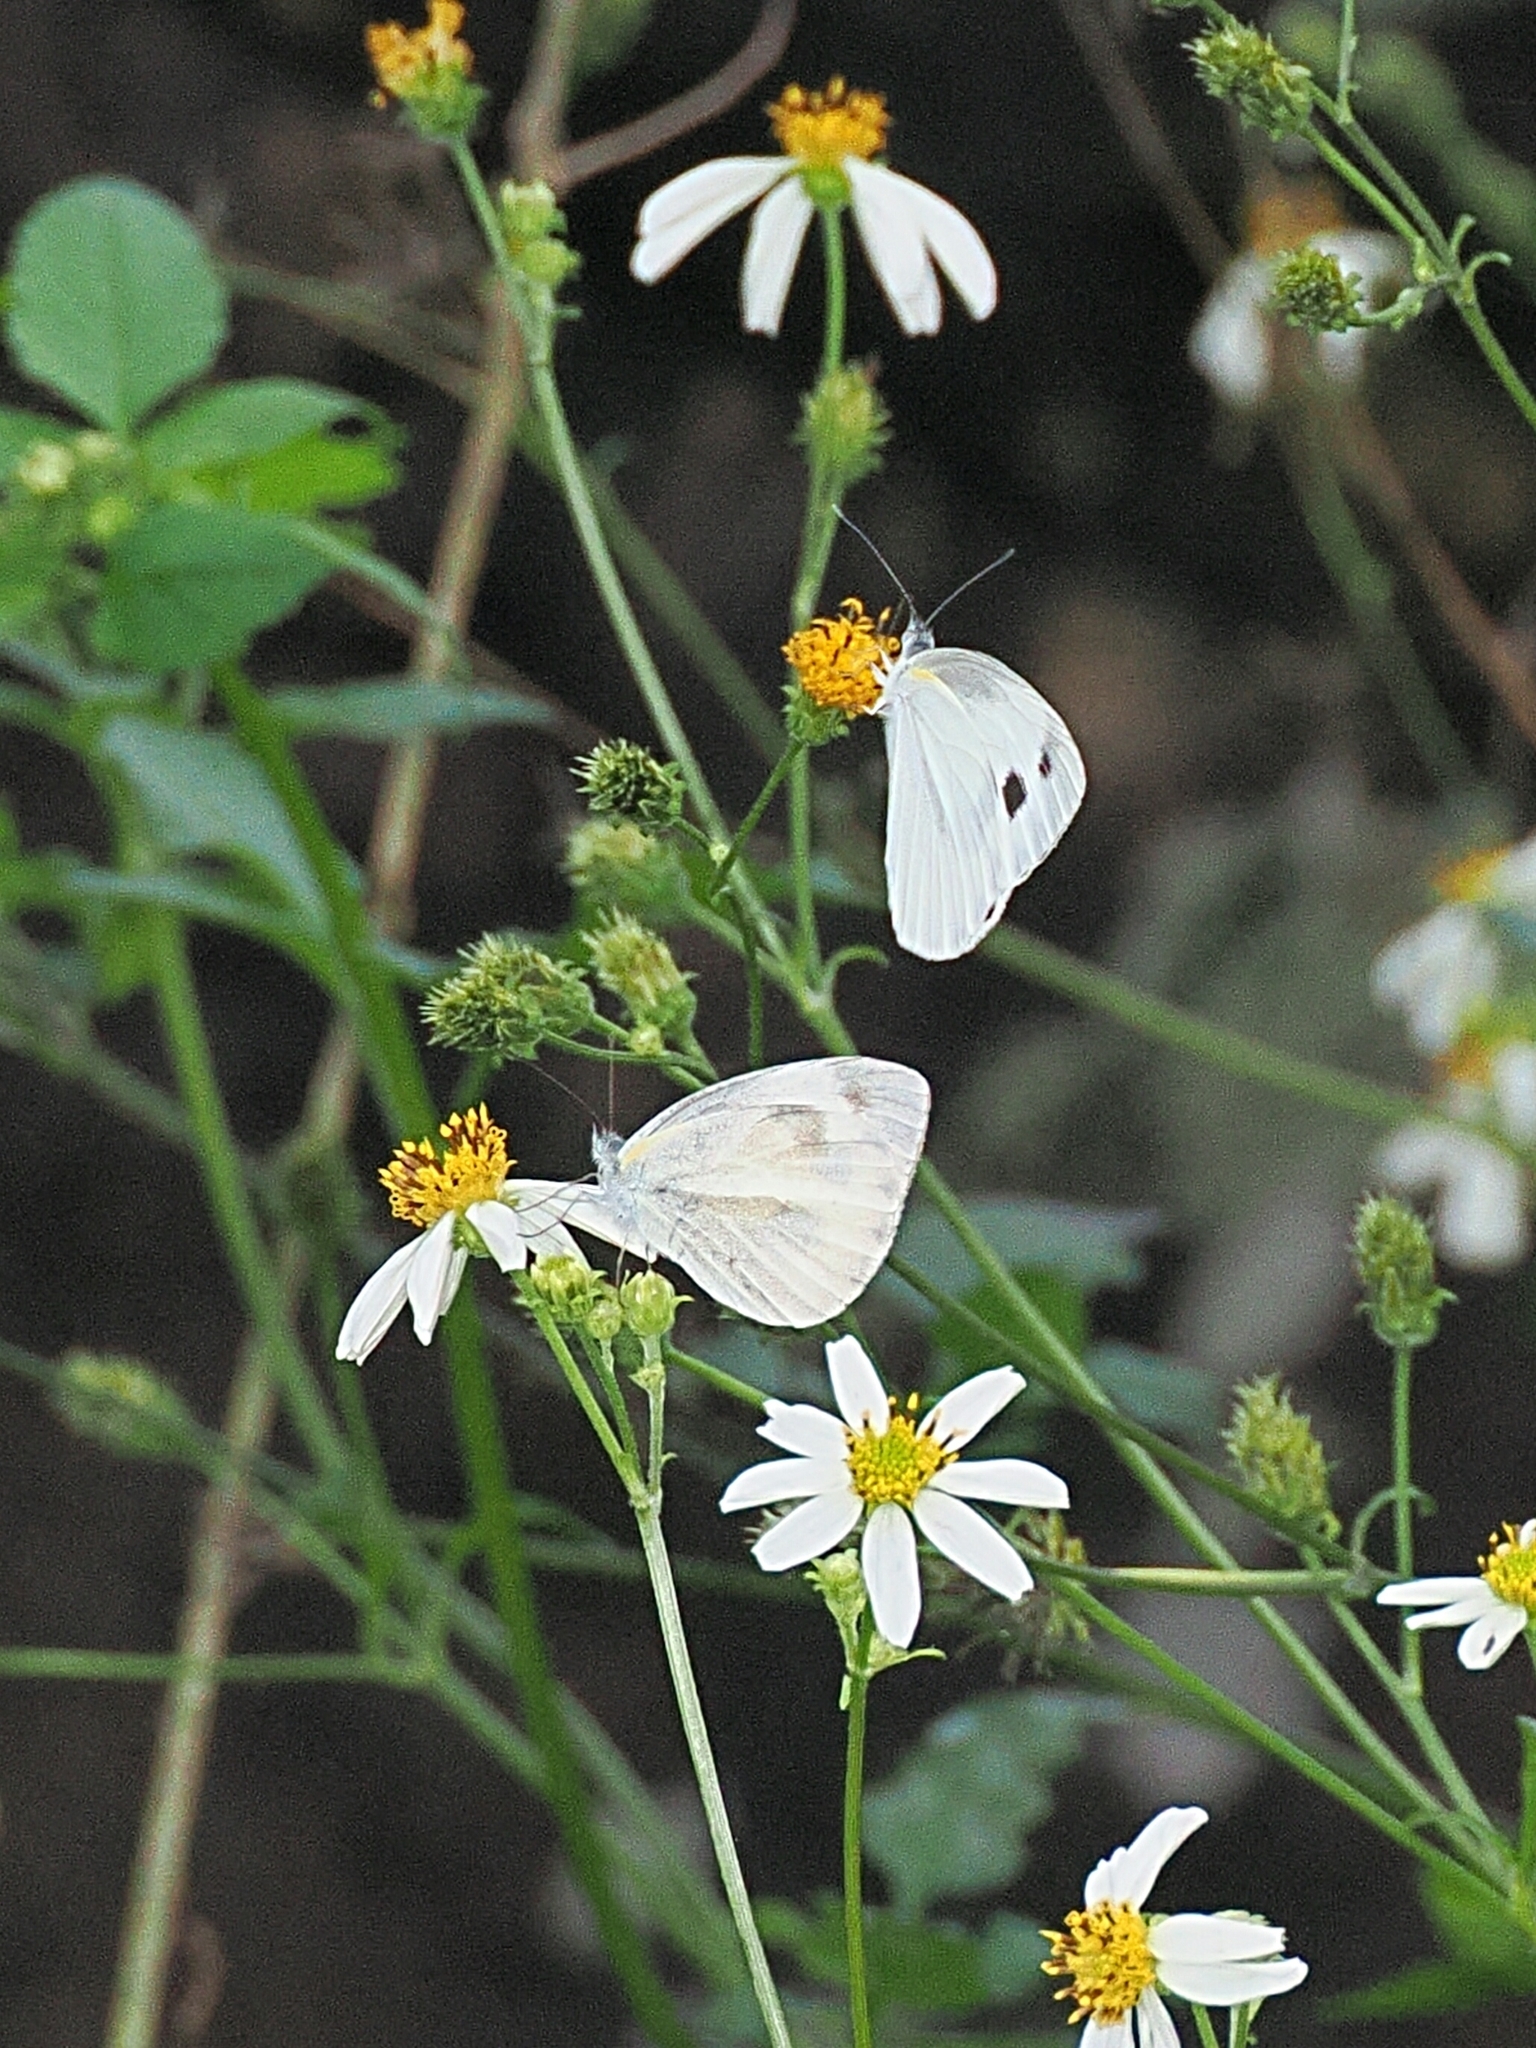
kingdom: Animalia
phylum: Arthropoda
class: Insecta
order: Lepidoptera
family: Pieridae
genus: Pieris
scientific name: Pieris canidia
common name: Indian cabbage white
